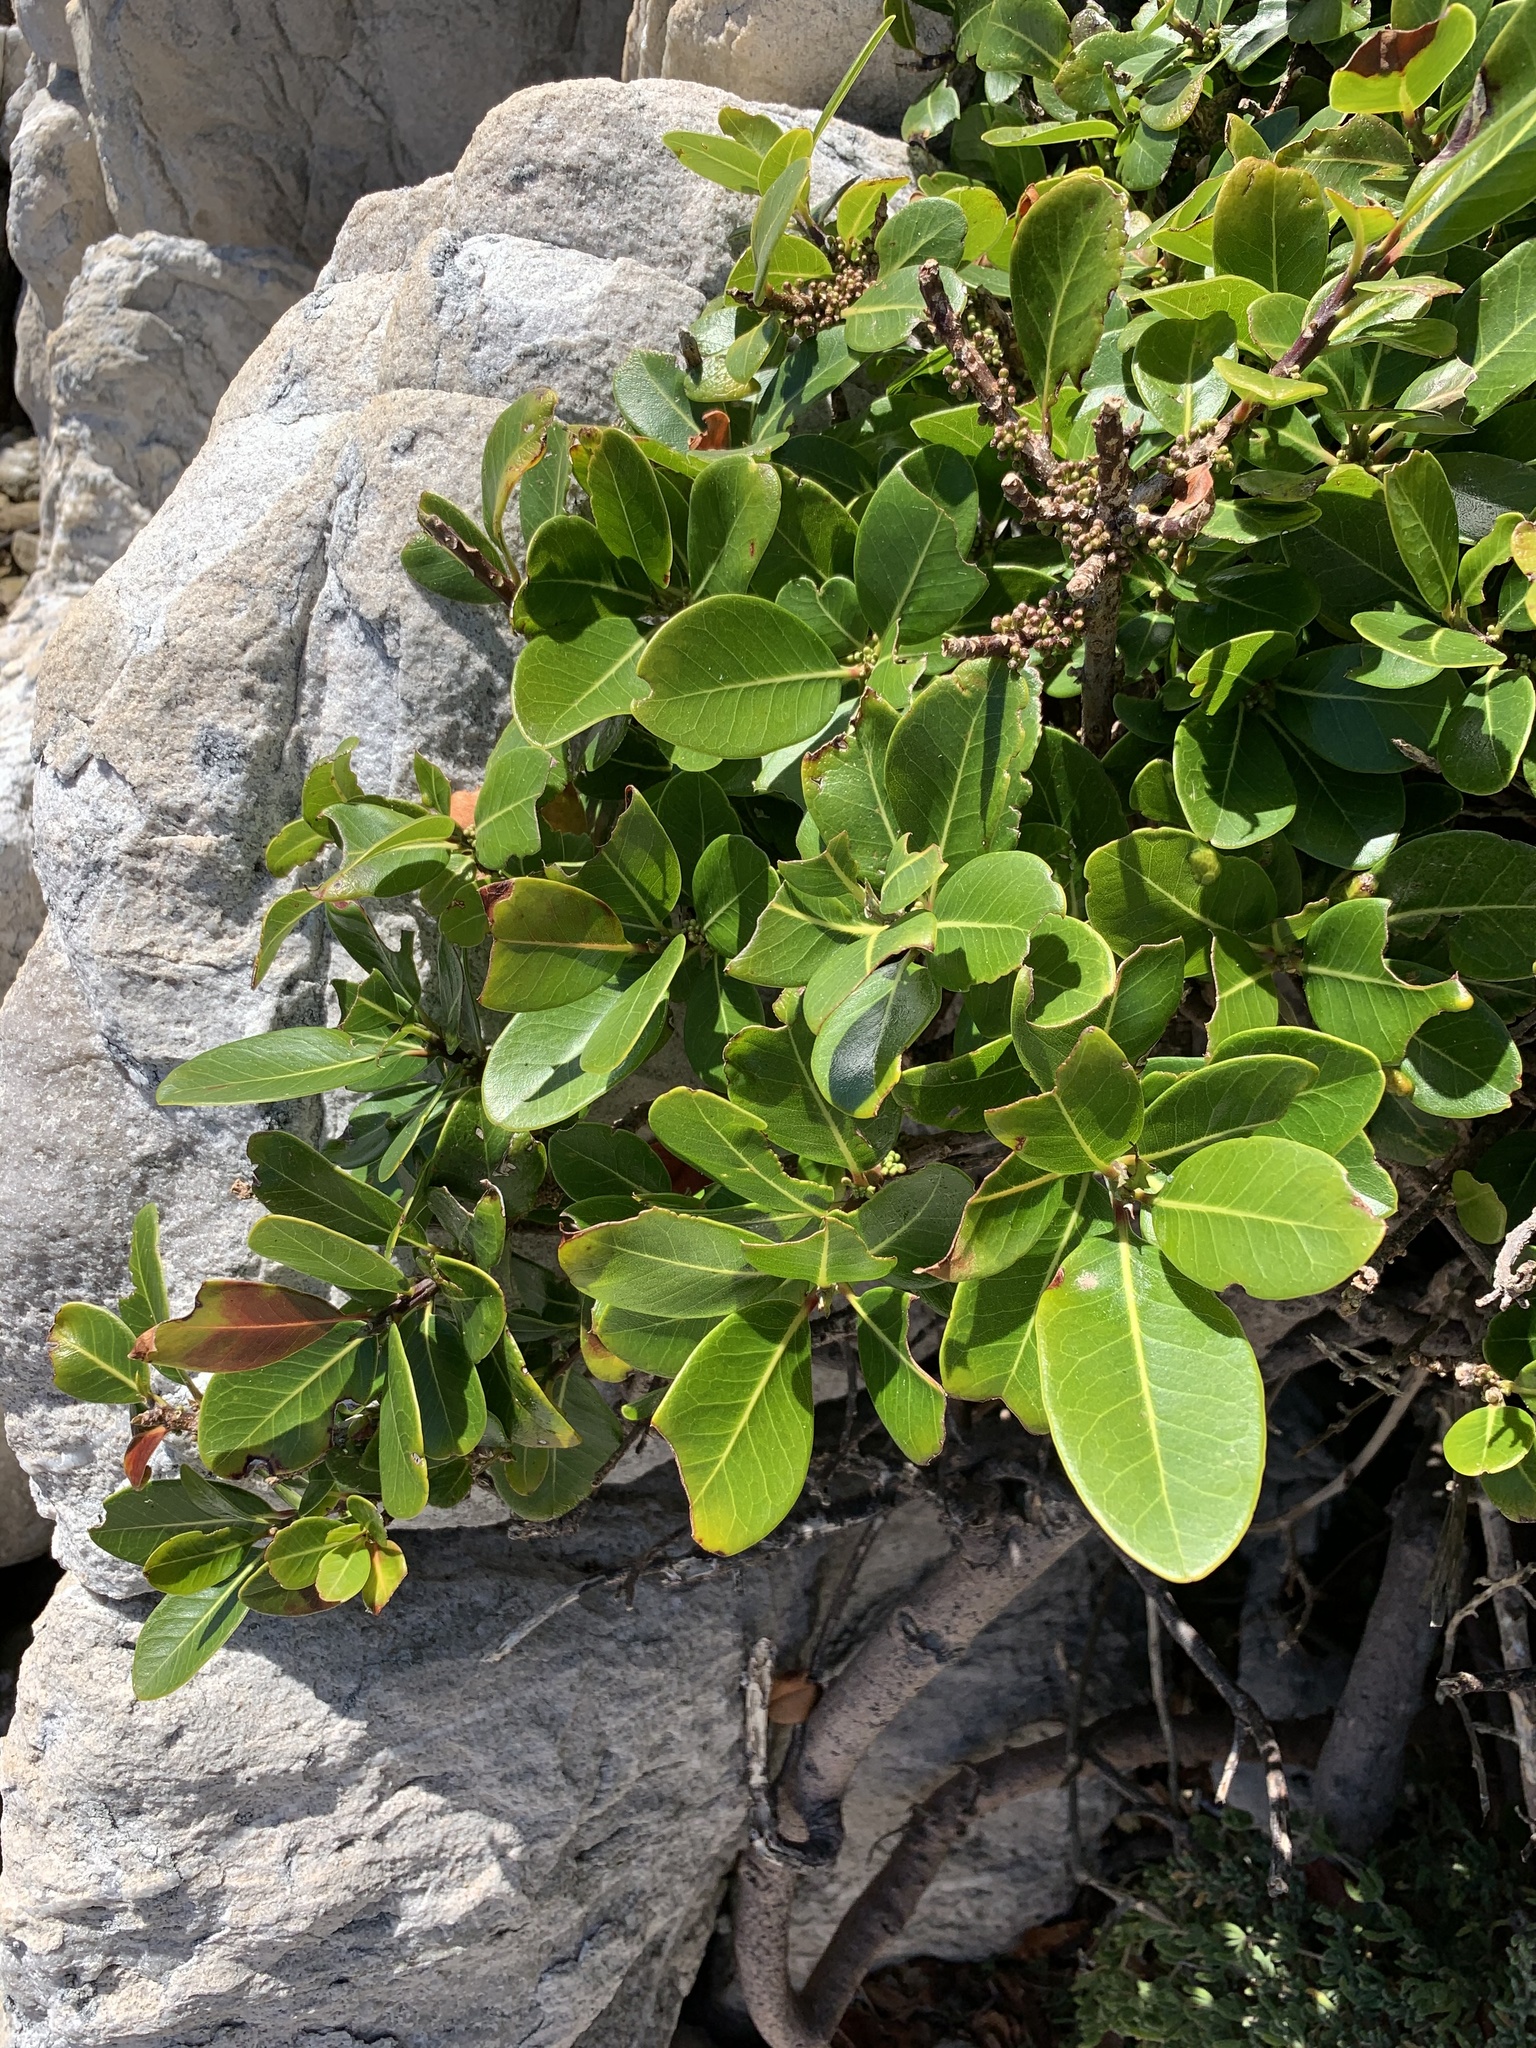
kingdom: Plantae
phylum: Tracheophyta
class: Magnoliopsida
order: Ericales
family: Sapotaceae
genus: Sideroxylon
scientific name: Sideroxylon inerme
